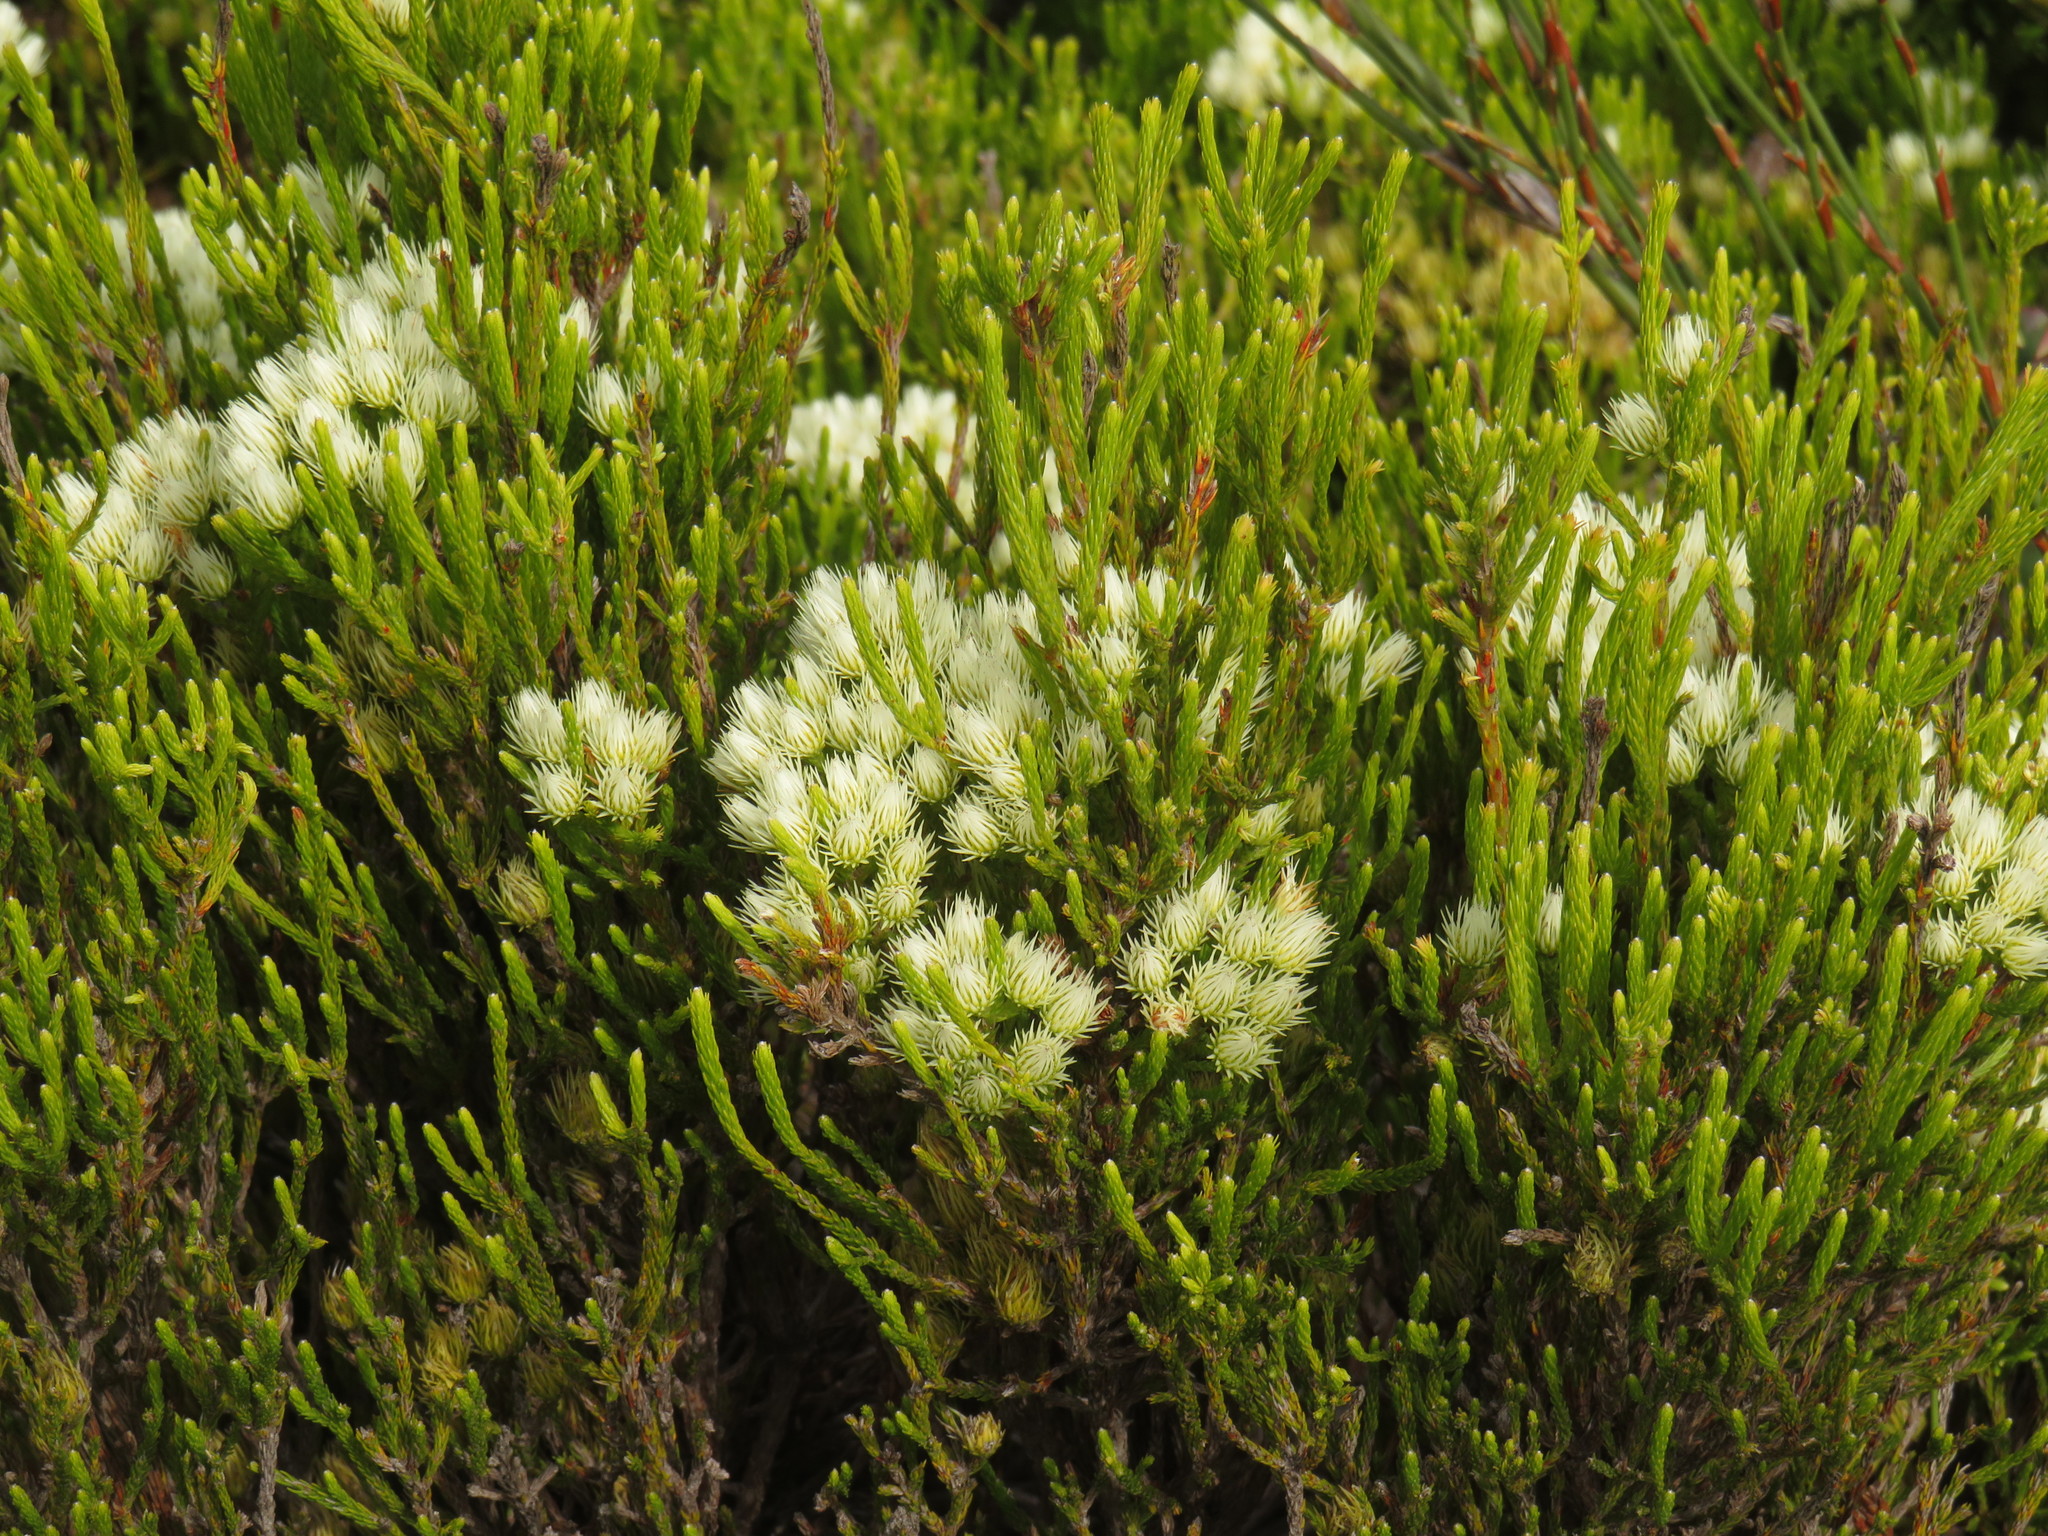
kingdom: Plantae
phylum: Tracheophyta
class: Magnoliopsida
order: Bruniales
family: Bruniaceae
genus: Brunia
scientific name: Brunia paleacea
